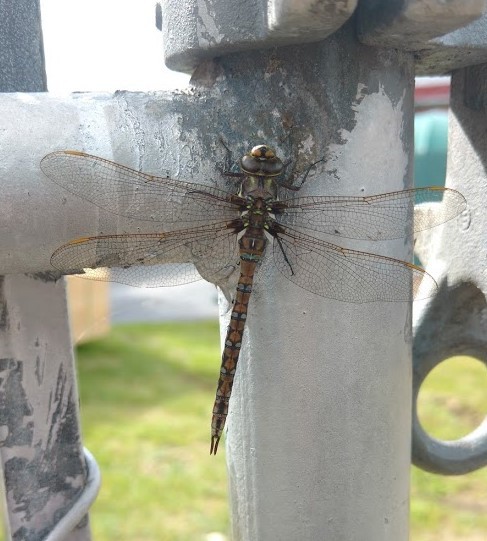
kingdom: Animalia
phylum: Arthropoda
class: Insecta
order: Odonata
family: Aeshnidae
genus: Basiaeschna
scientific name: Basiaeschna janata
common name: Springtime darner
